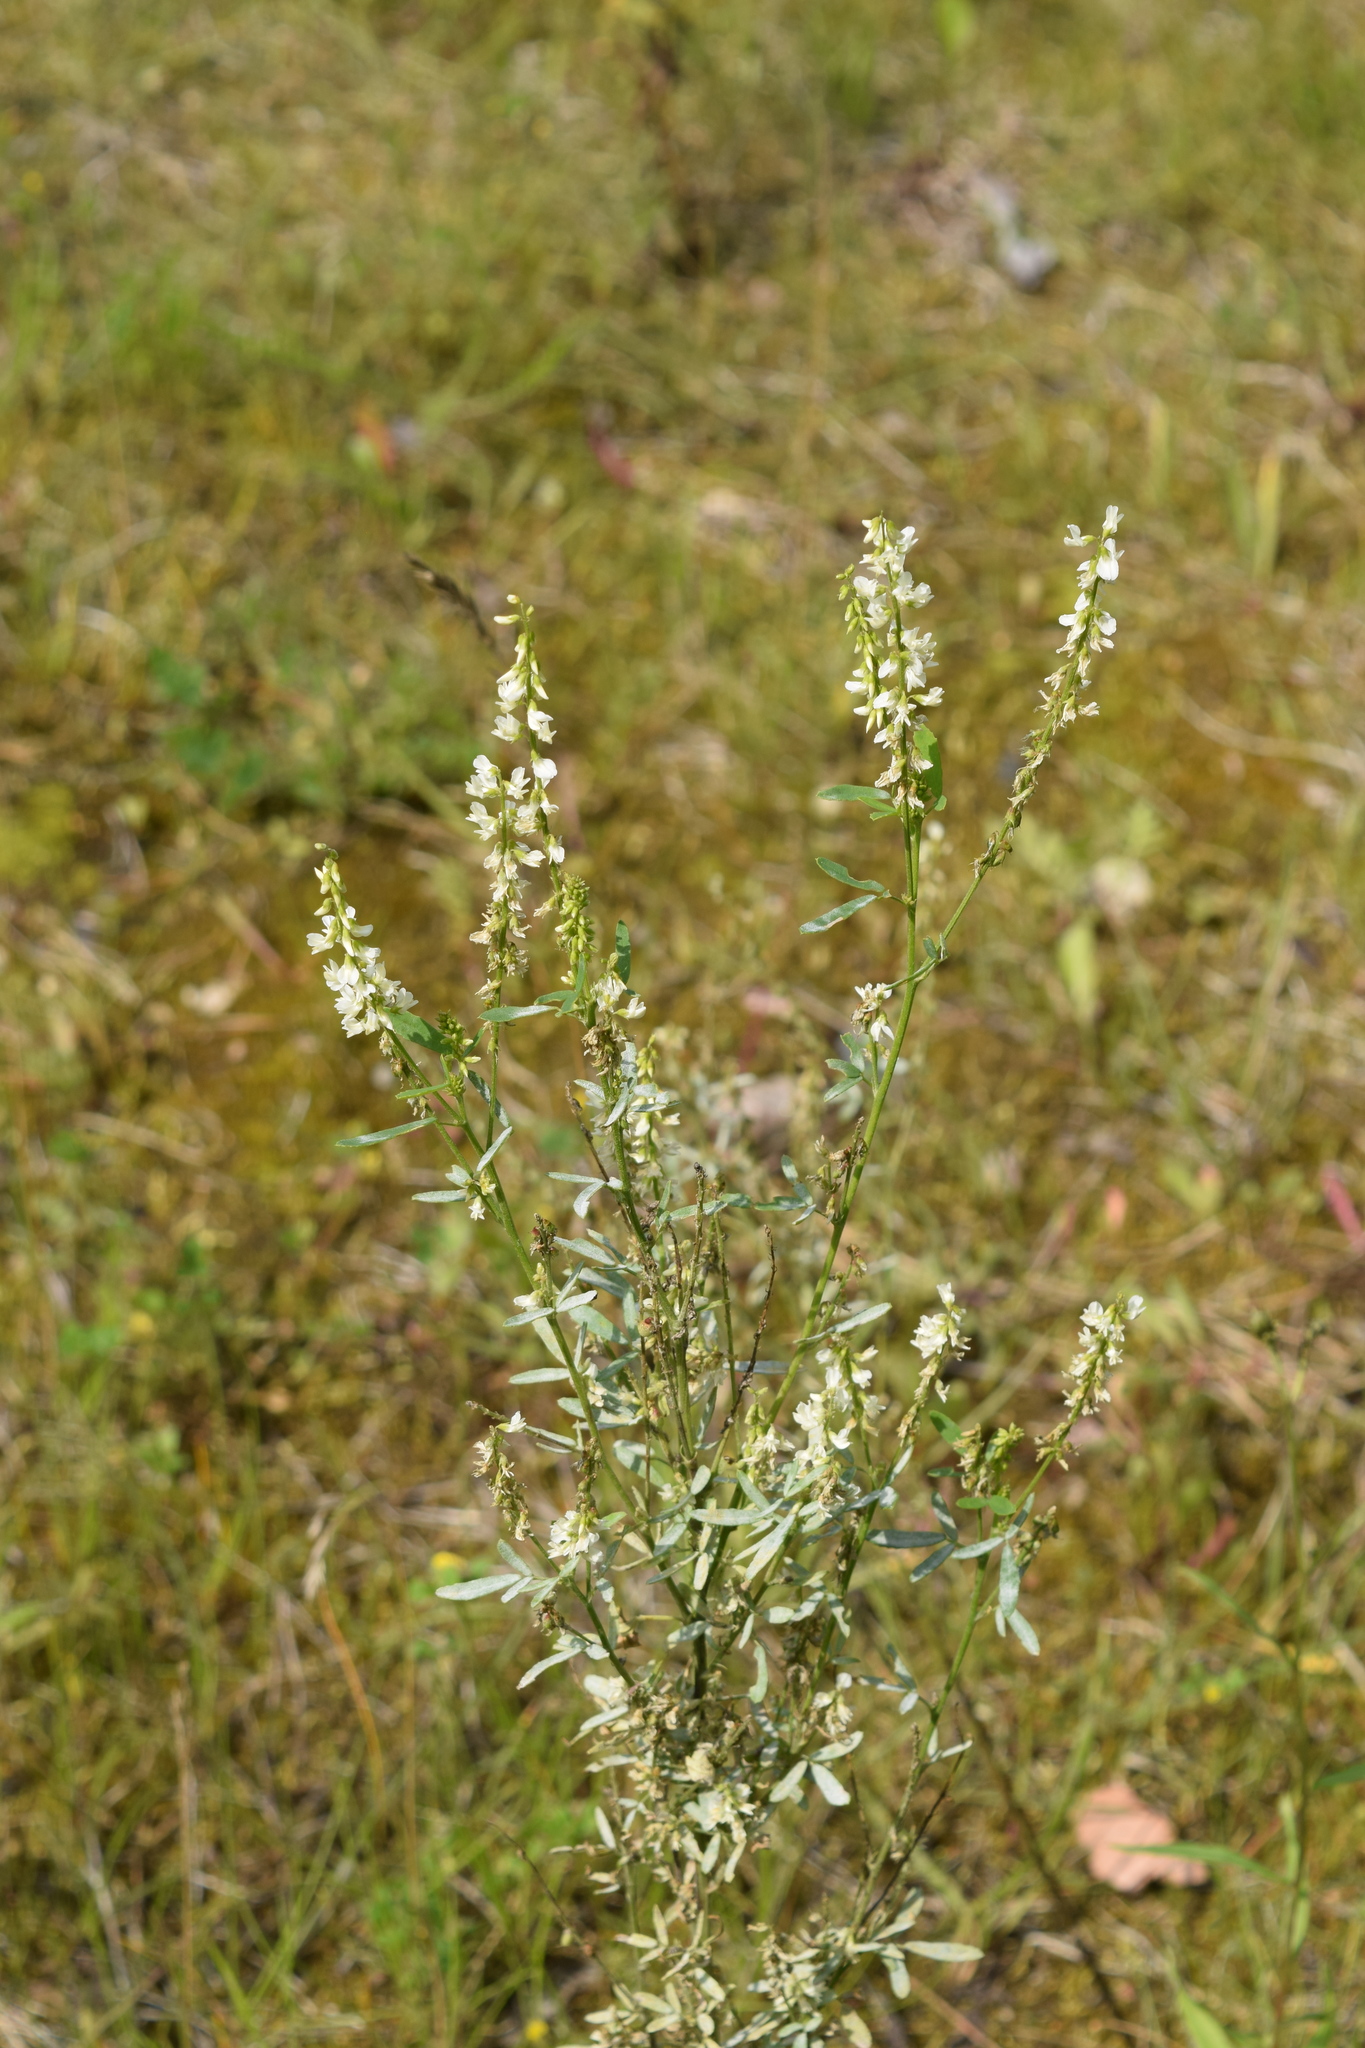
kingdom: Plantae
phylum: Tracheophyta
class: Magnoliopsida
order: Fabales
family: Fabaceae
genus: Melilotus
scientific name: Melilotus albus
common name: White melilot
